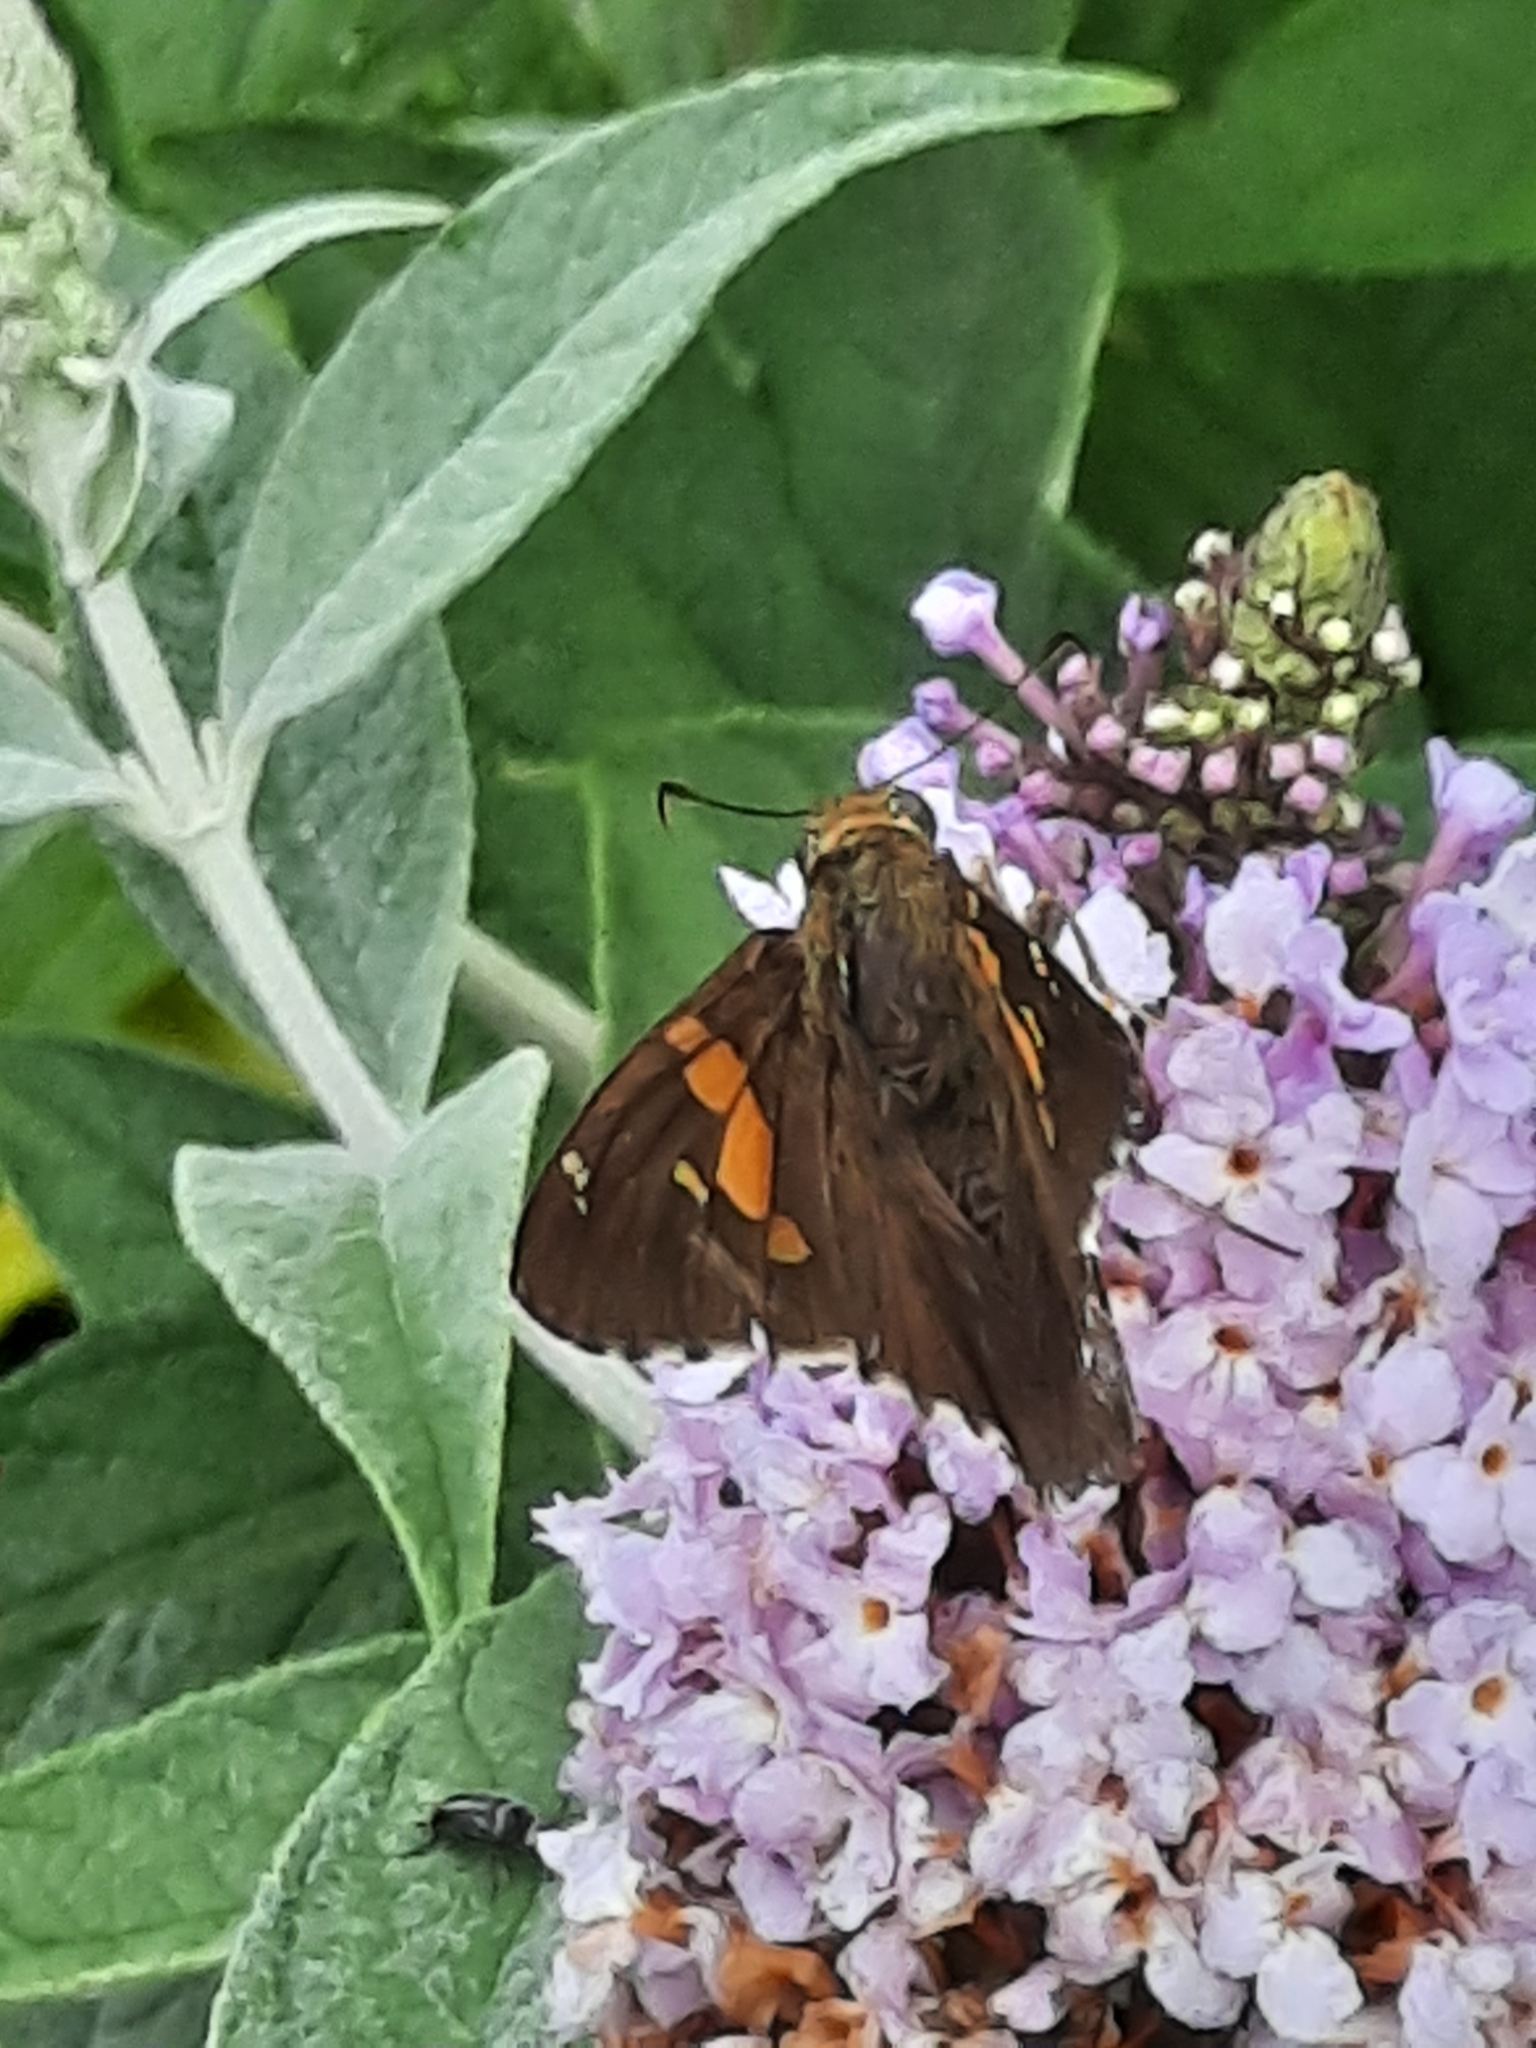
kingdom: Animalia
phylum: Arthropoda
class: Insecta
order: Lepidoptera
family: Hesperiidae
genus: Epargyreus
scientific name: Epargyreus clarus
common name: Silver-spotted skipper
